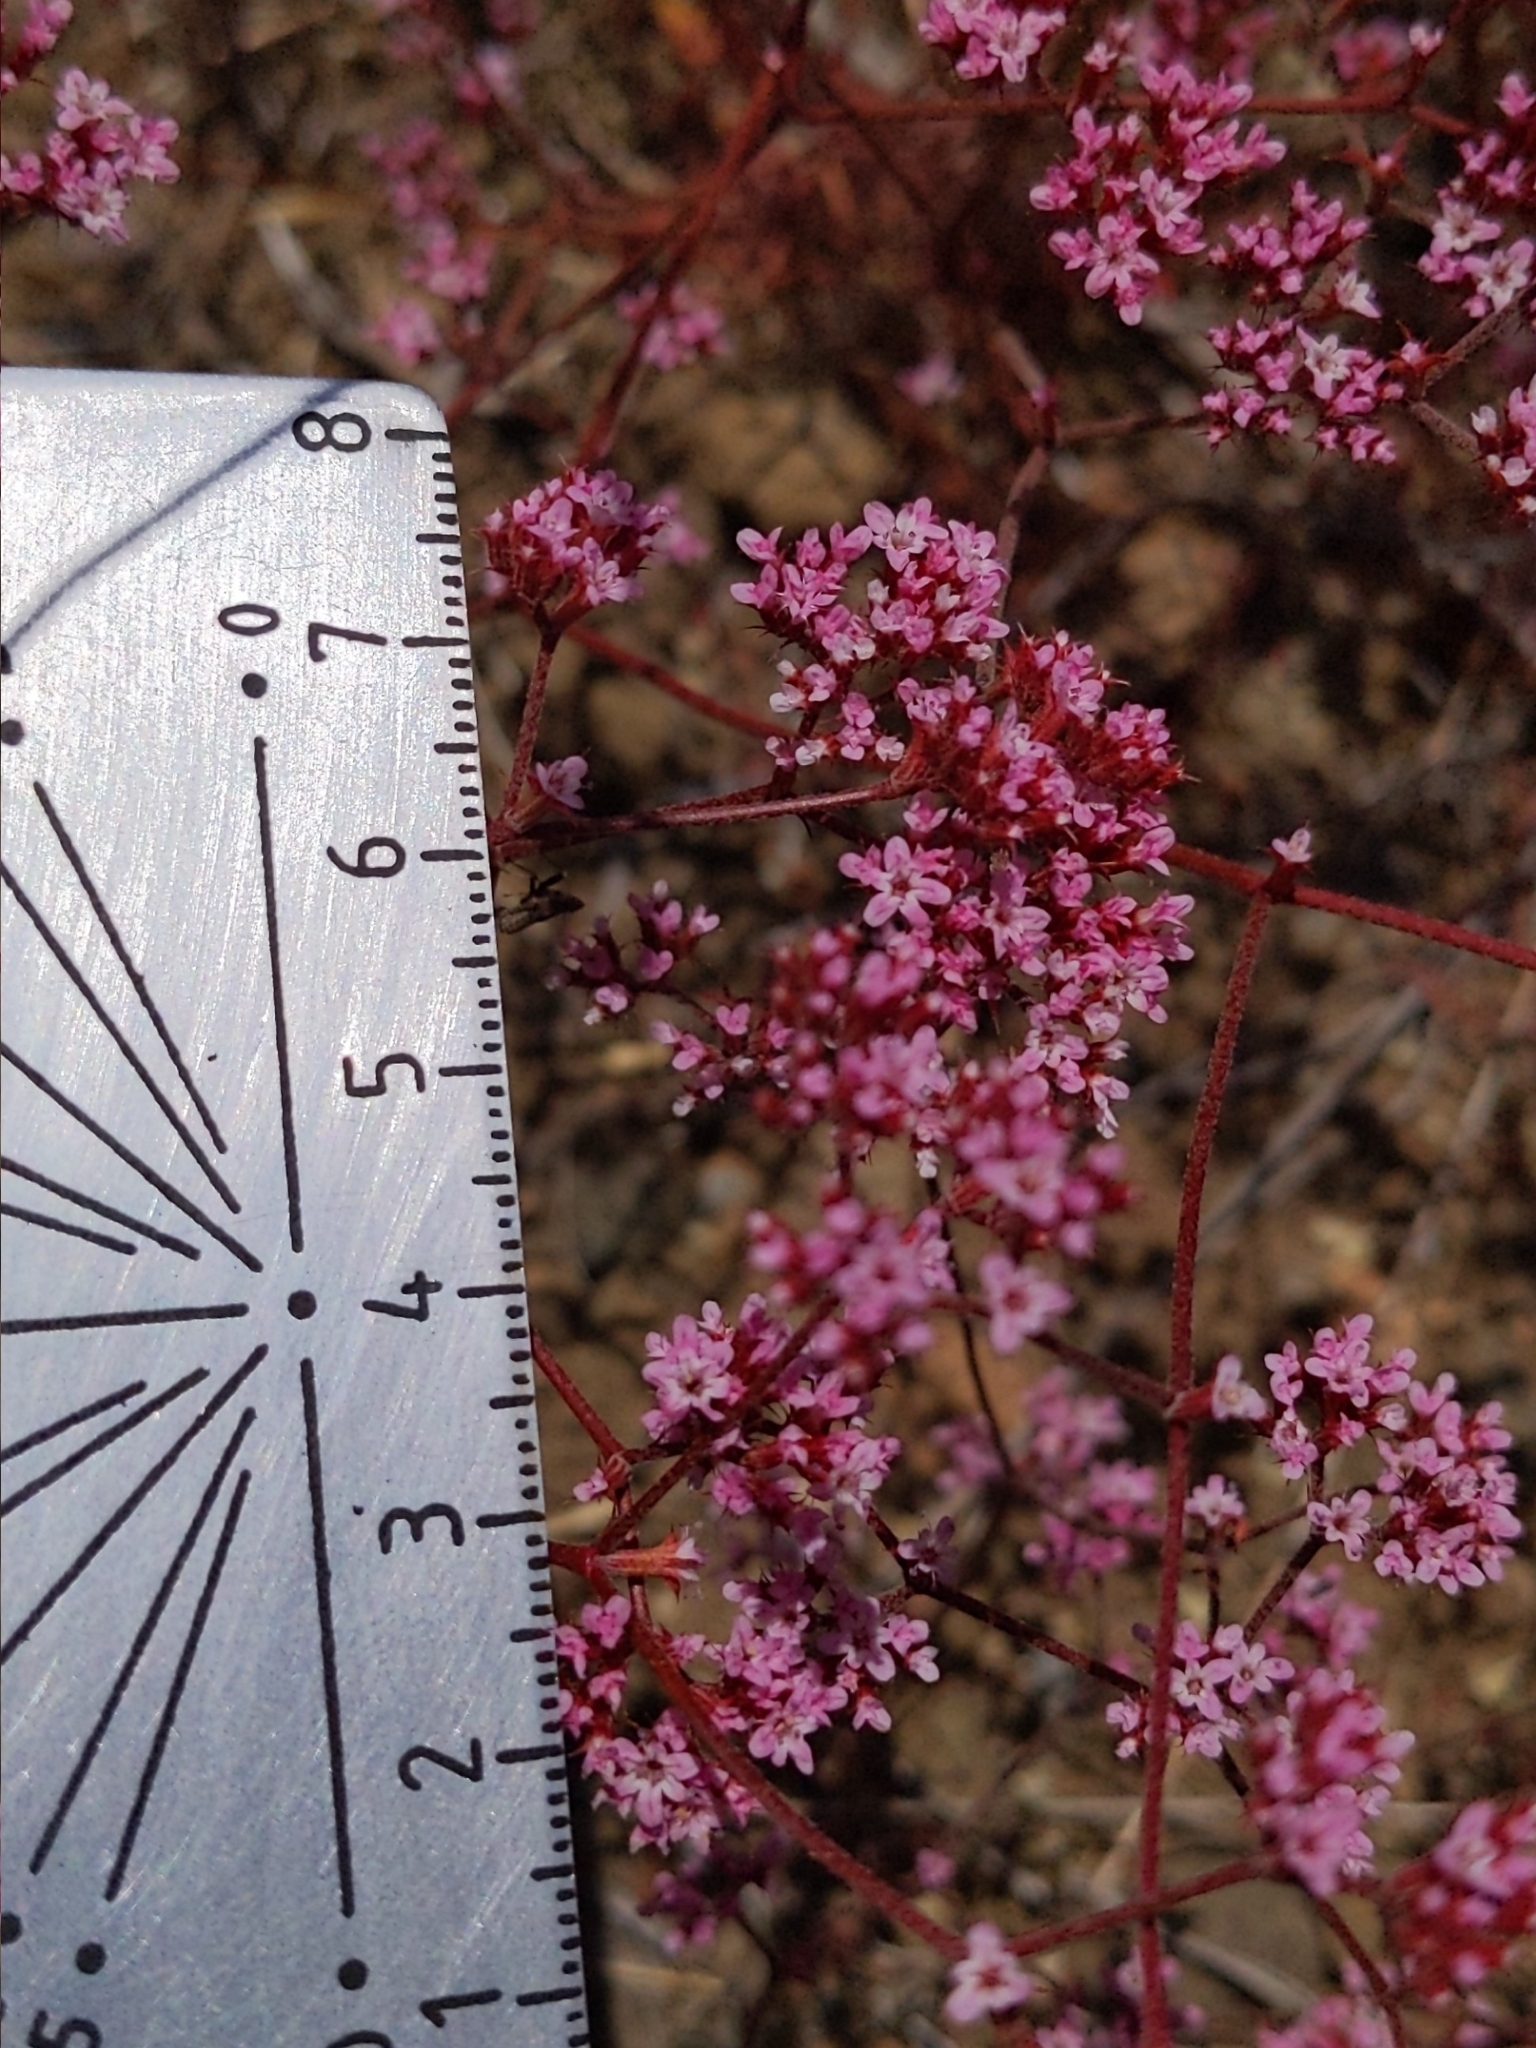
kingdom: Plantae
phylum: Tracheophyta
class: Magnoliopsida
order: Caryophyllales
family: Polygonaceae
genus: Chorizanthe
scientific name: Chorizanthe staticoides
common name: Turkish rugging
